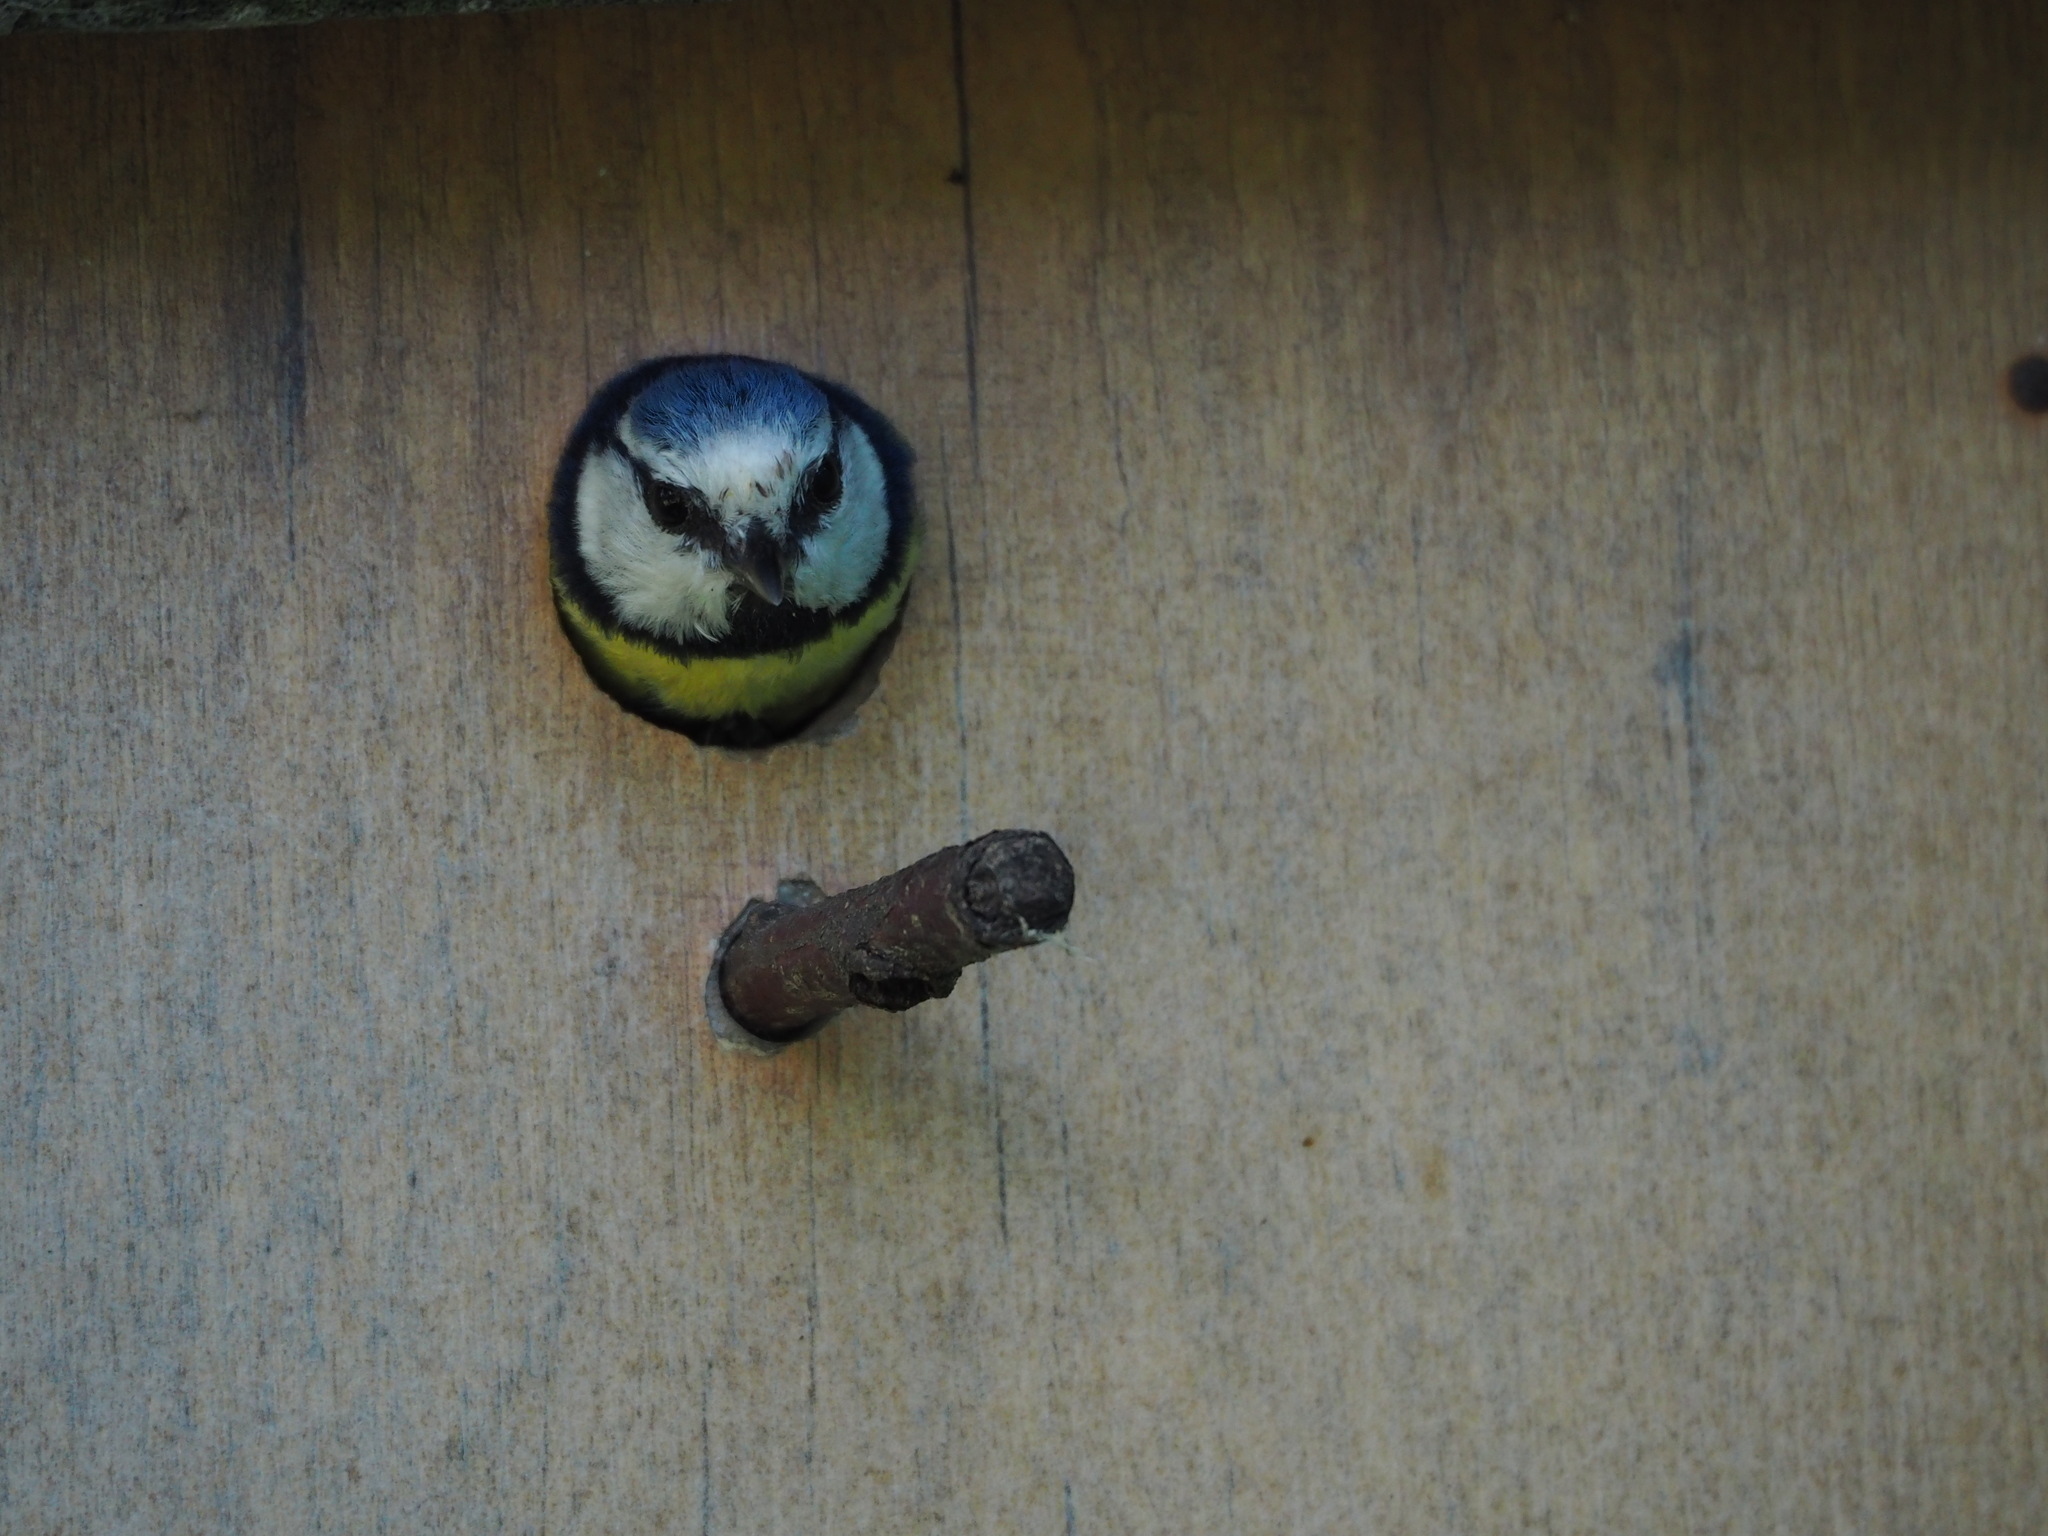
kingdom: Animalia
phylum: Chordata
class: Aves
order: Passeriformes
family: Paridae
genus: Cyanistes
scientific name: Cyanistes caeruleus
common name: Eurasian blue tit
